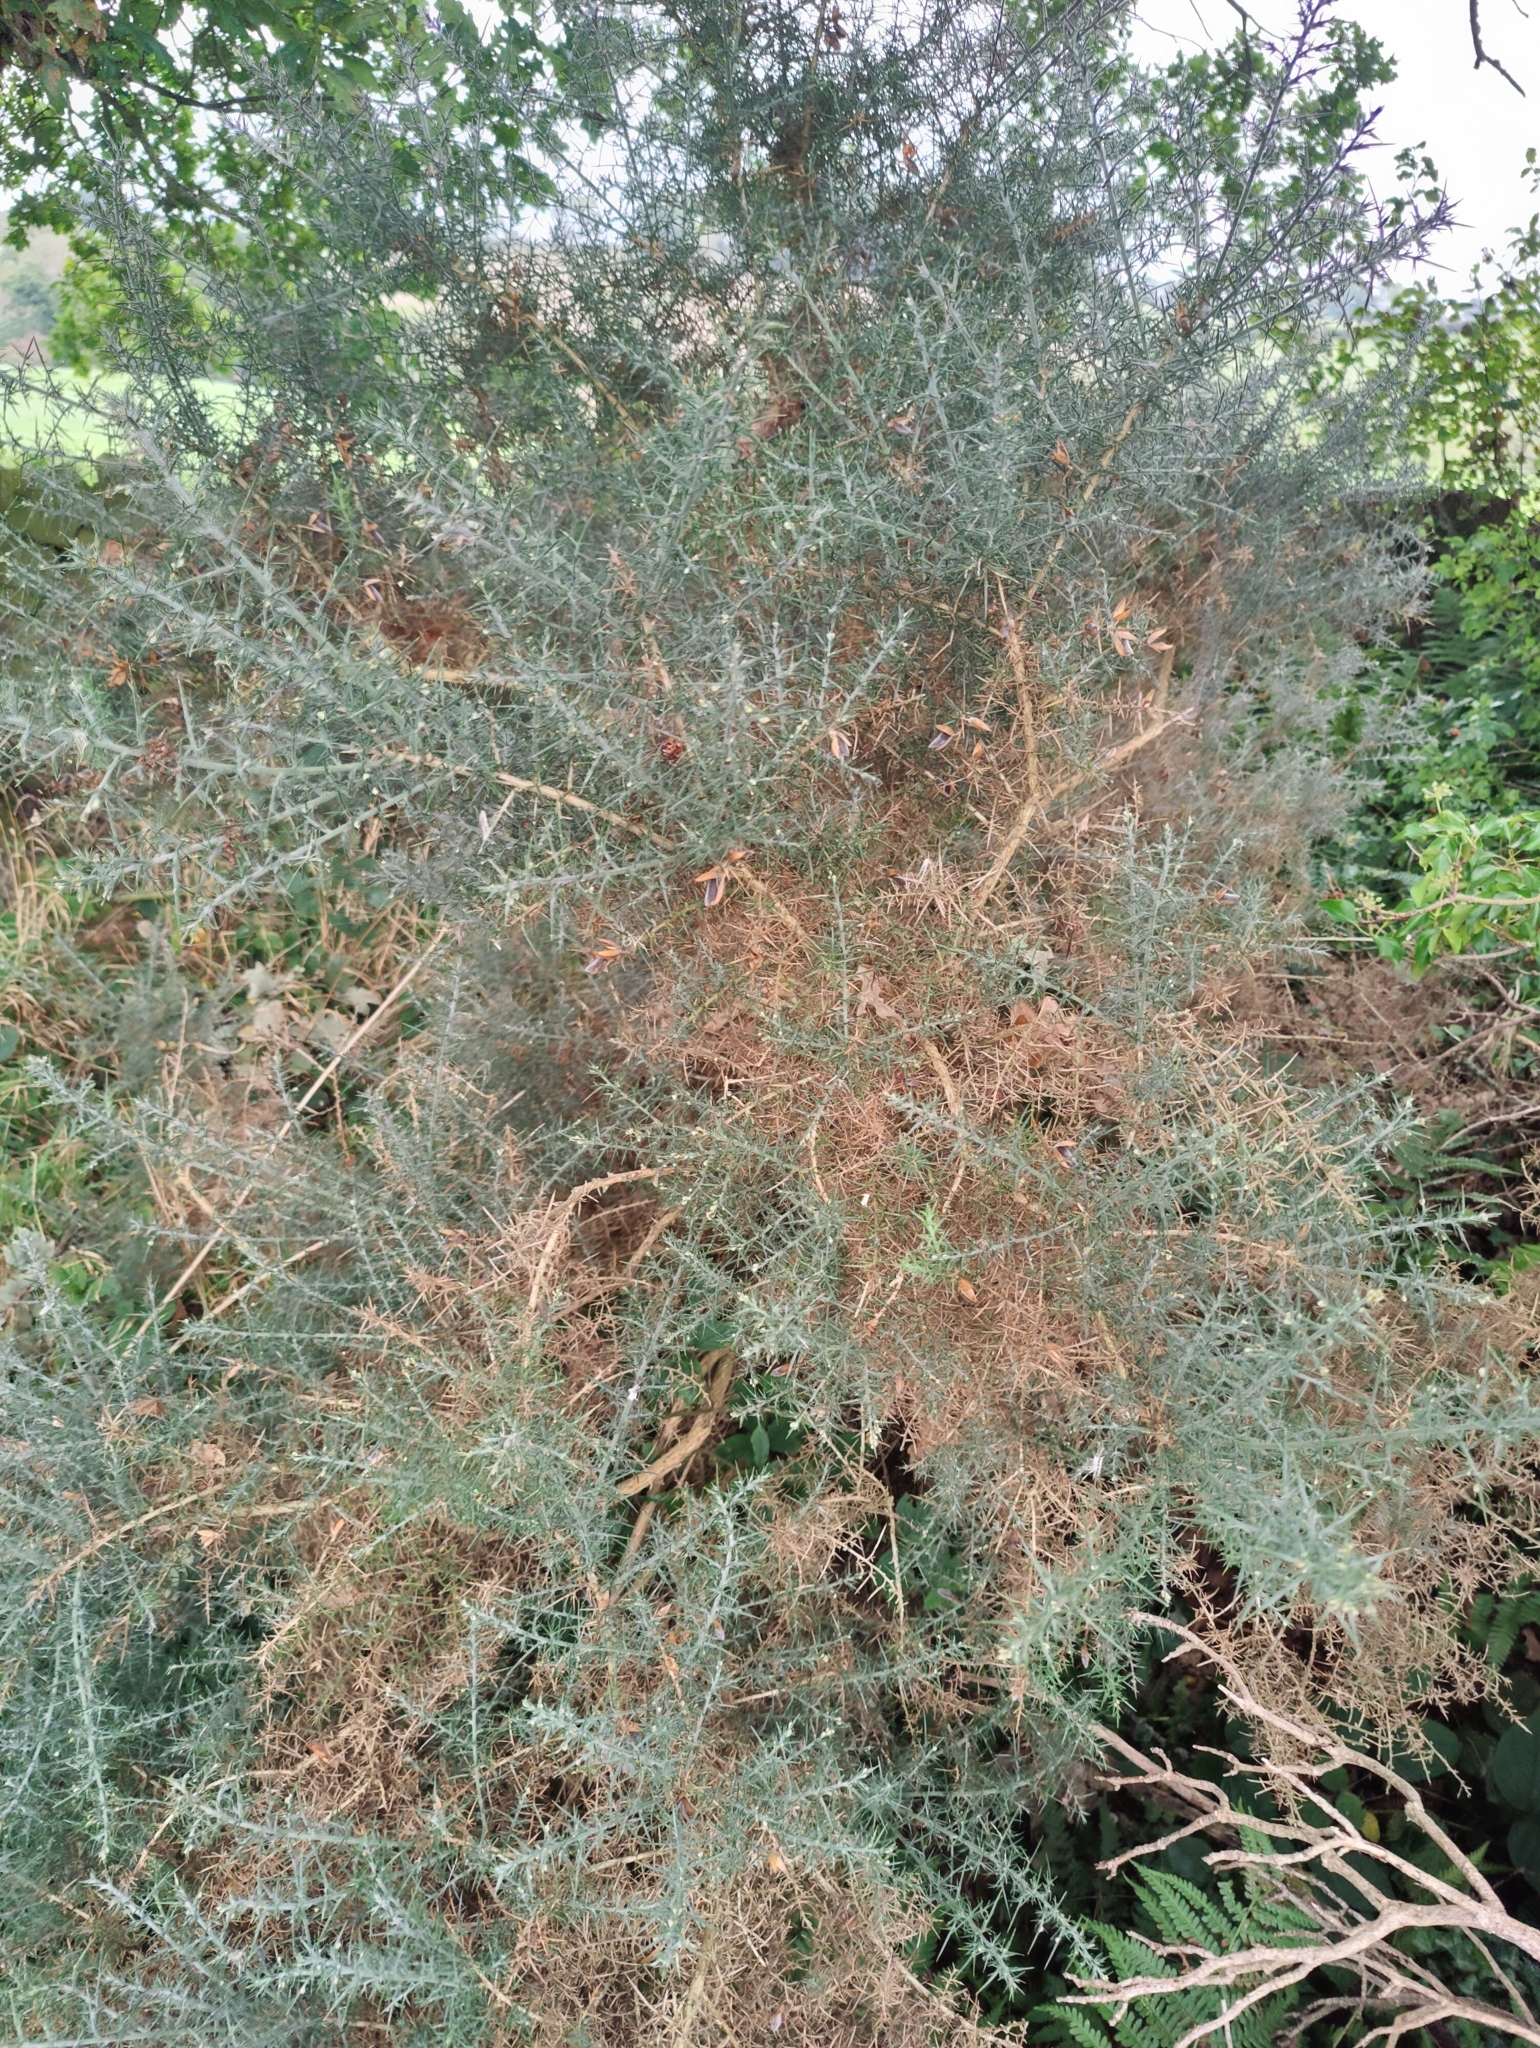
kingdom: Plantae
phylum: Tracheophyta
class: Magnoliopsida
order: Fabales
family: Fabaceae
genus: Ulex
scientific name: Ulex europaeus
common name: Common gorse
